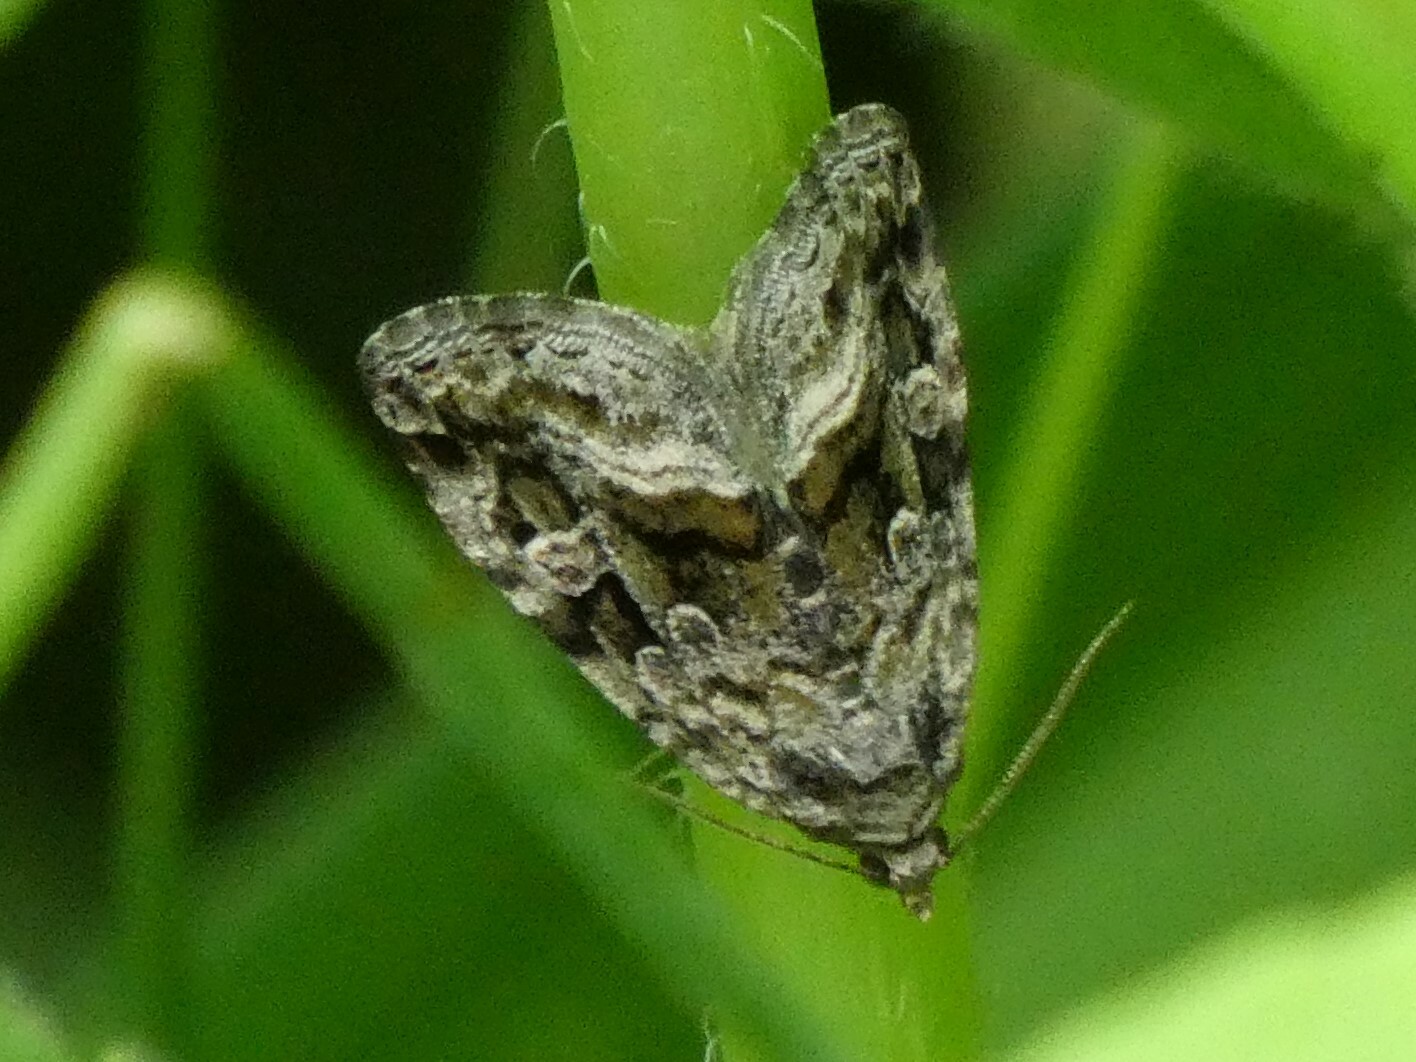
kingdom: Animalia
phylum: Arthropoda
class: Insecta
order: Lepidoptera
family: Noctuidae
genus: Protodeltote
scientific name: Protodeltote muscosula
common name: Large mossy glyph
